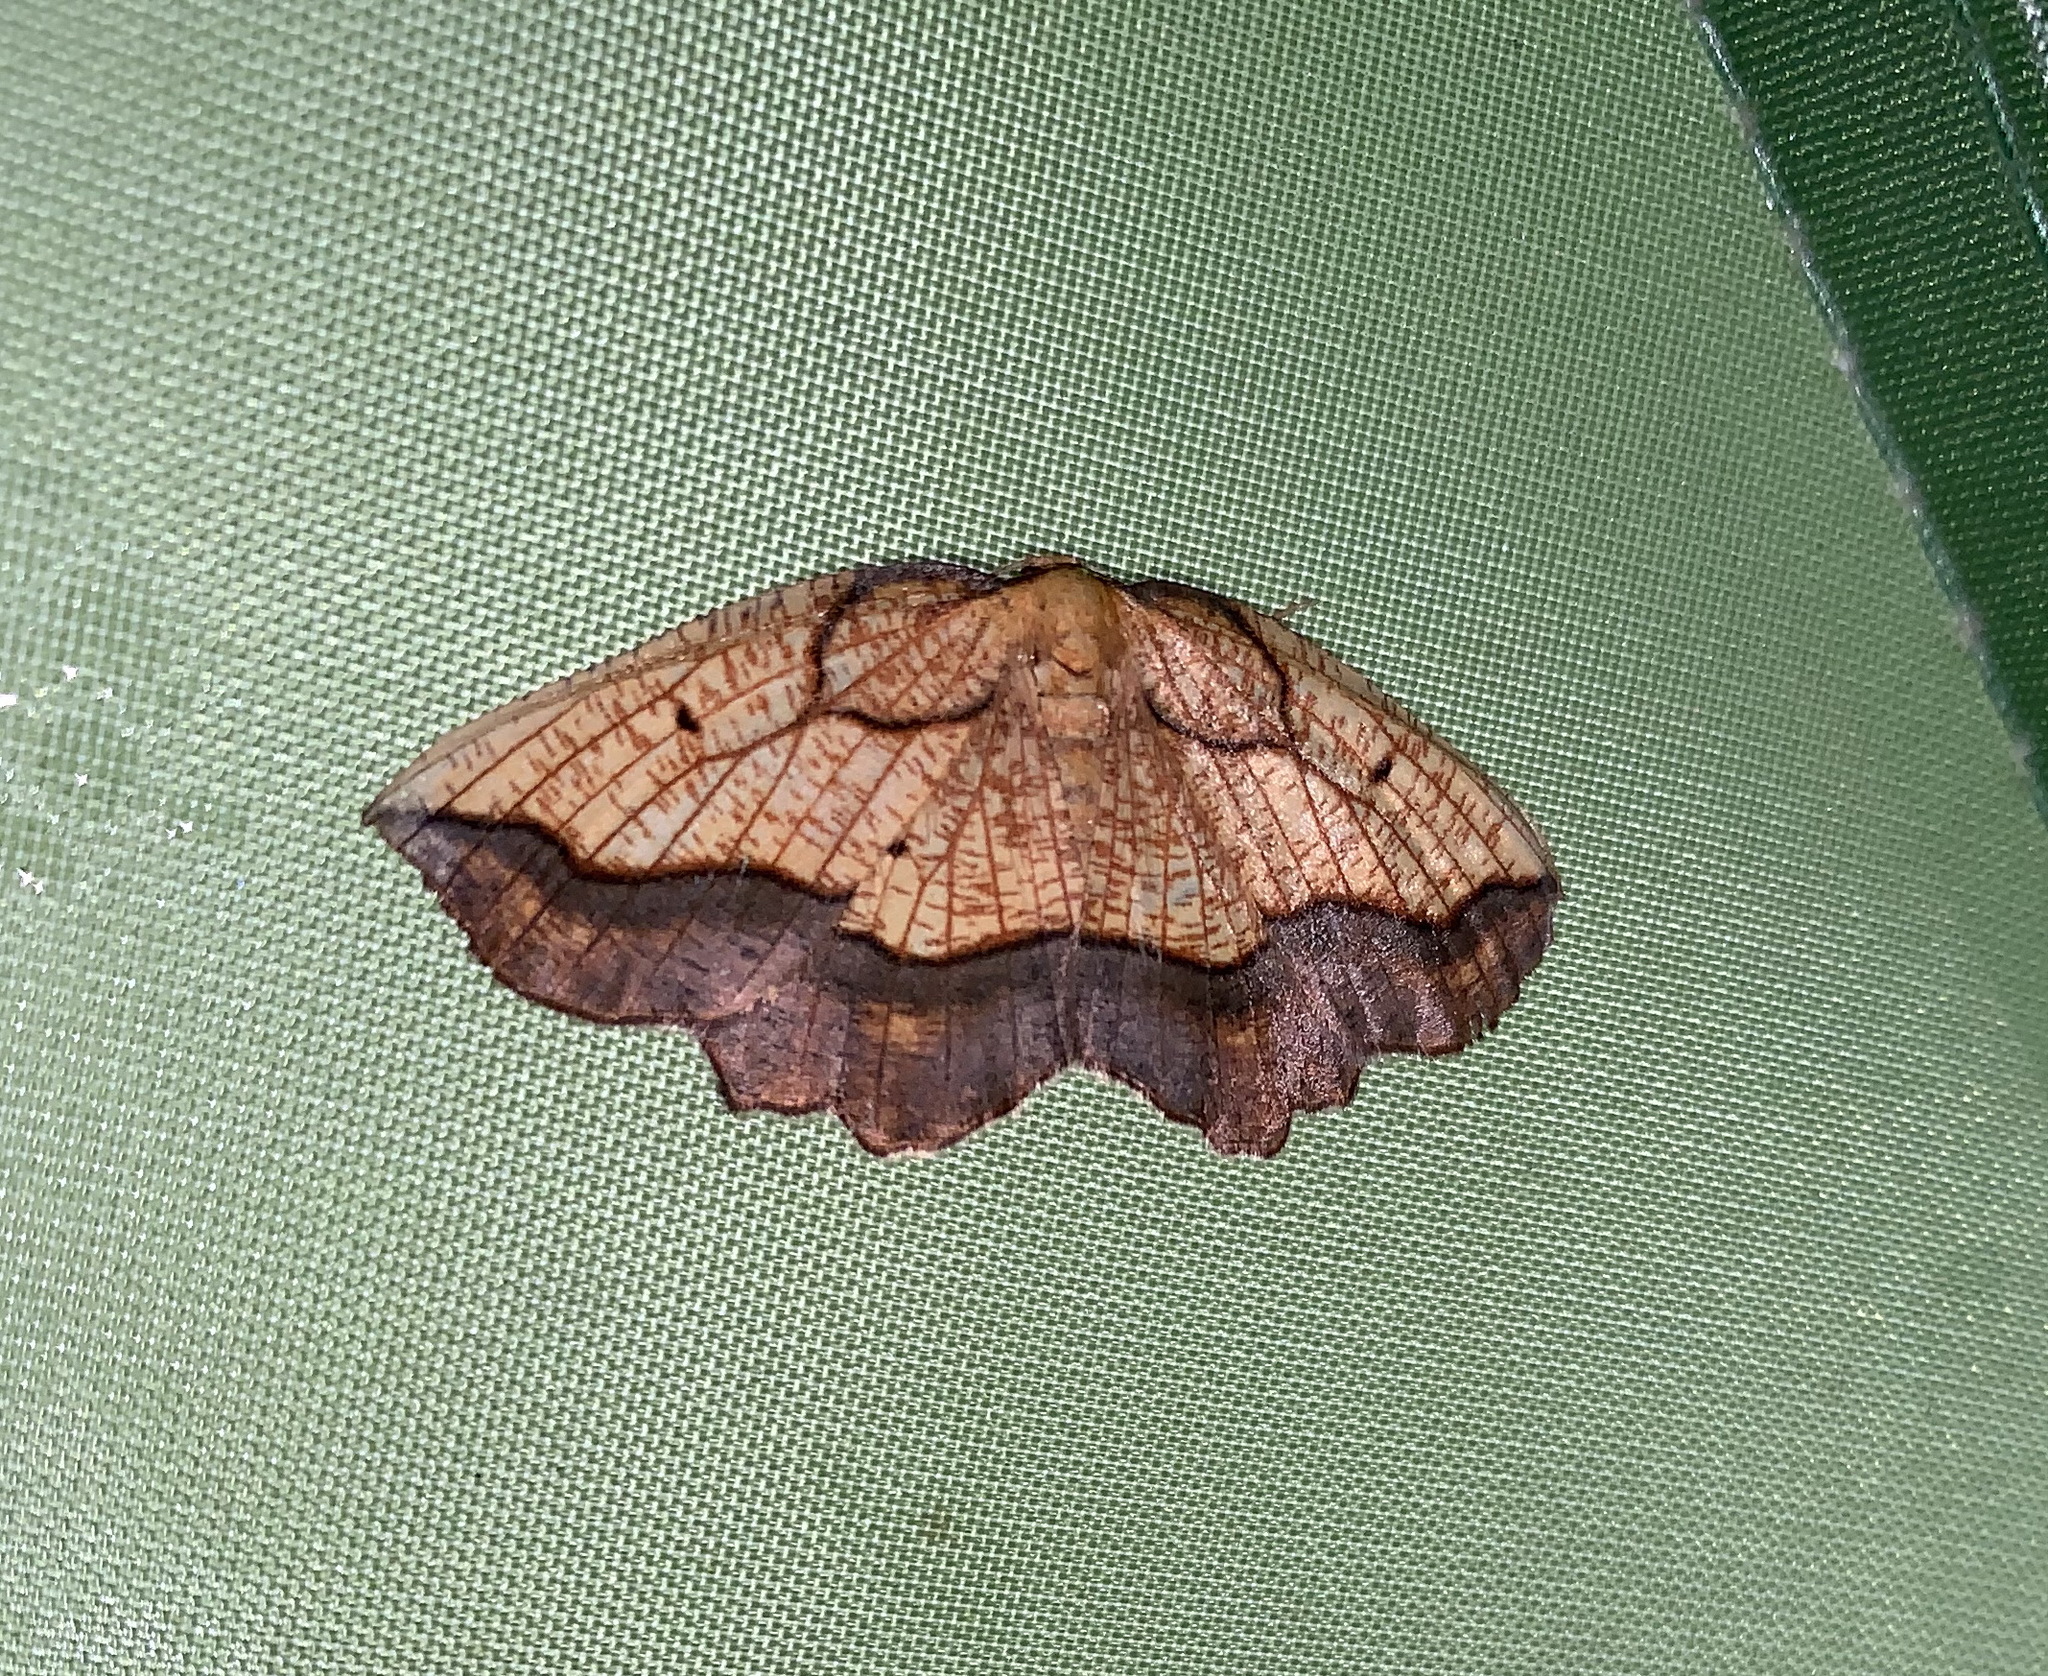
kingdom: Animalia
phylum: Arthropoda
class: Insecta
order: Lepidoptera
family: Geometridae
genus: Epione
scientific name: Epione repandaria
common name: Bordered beauty
